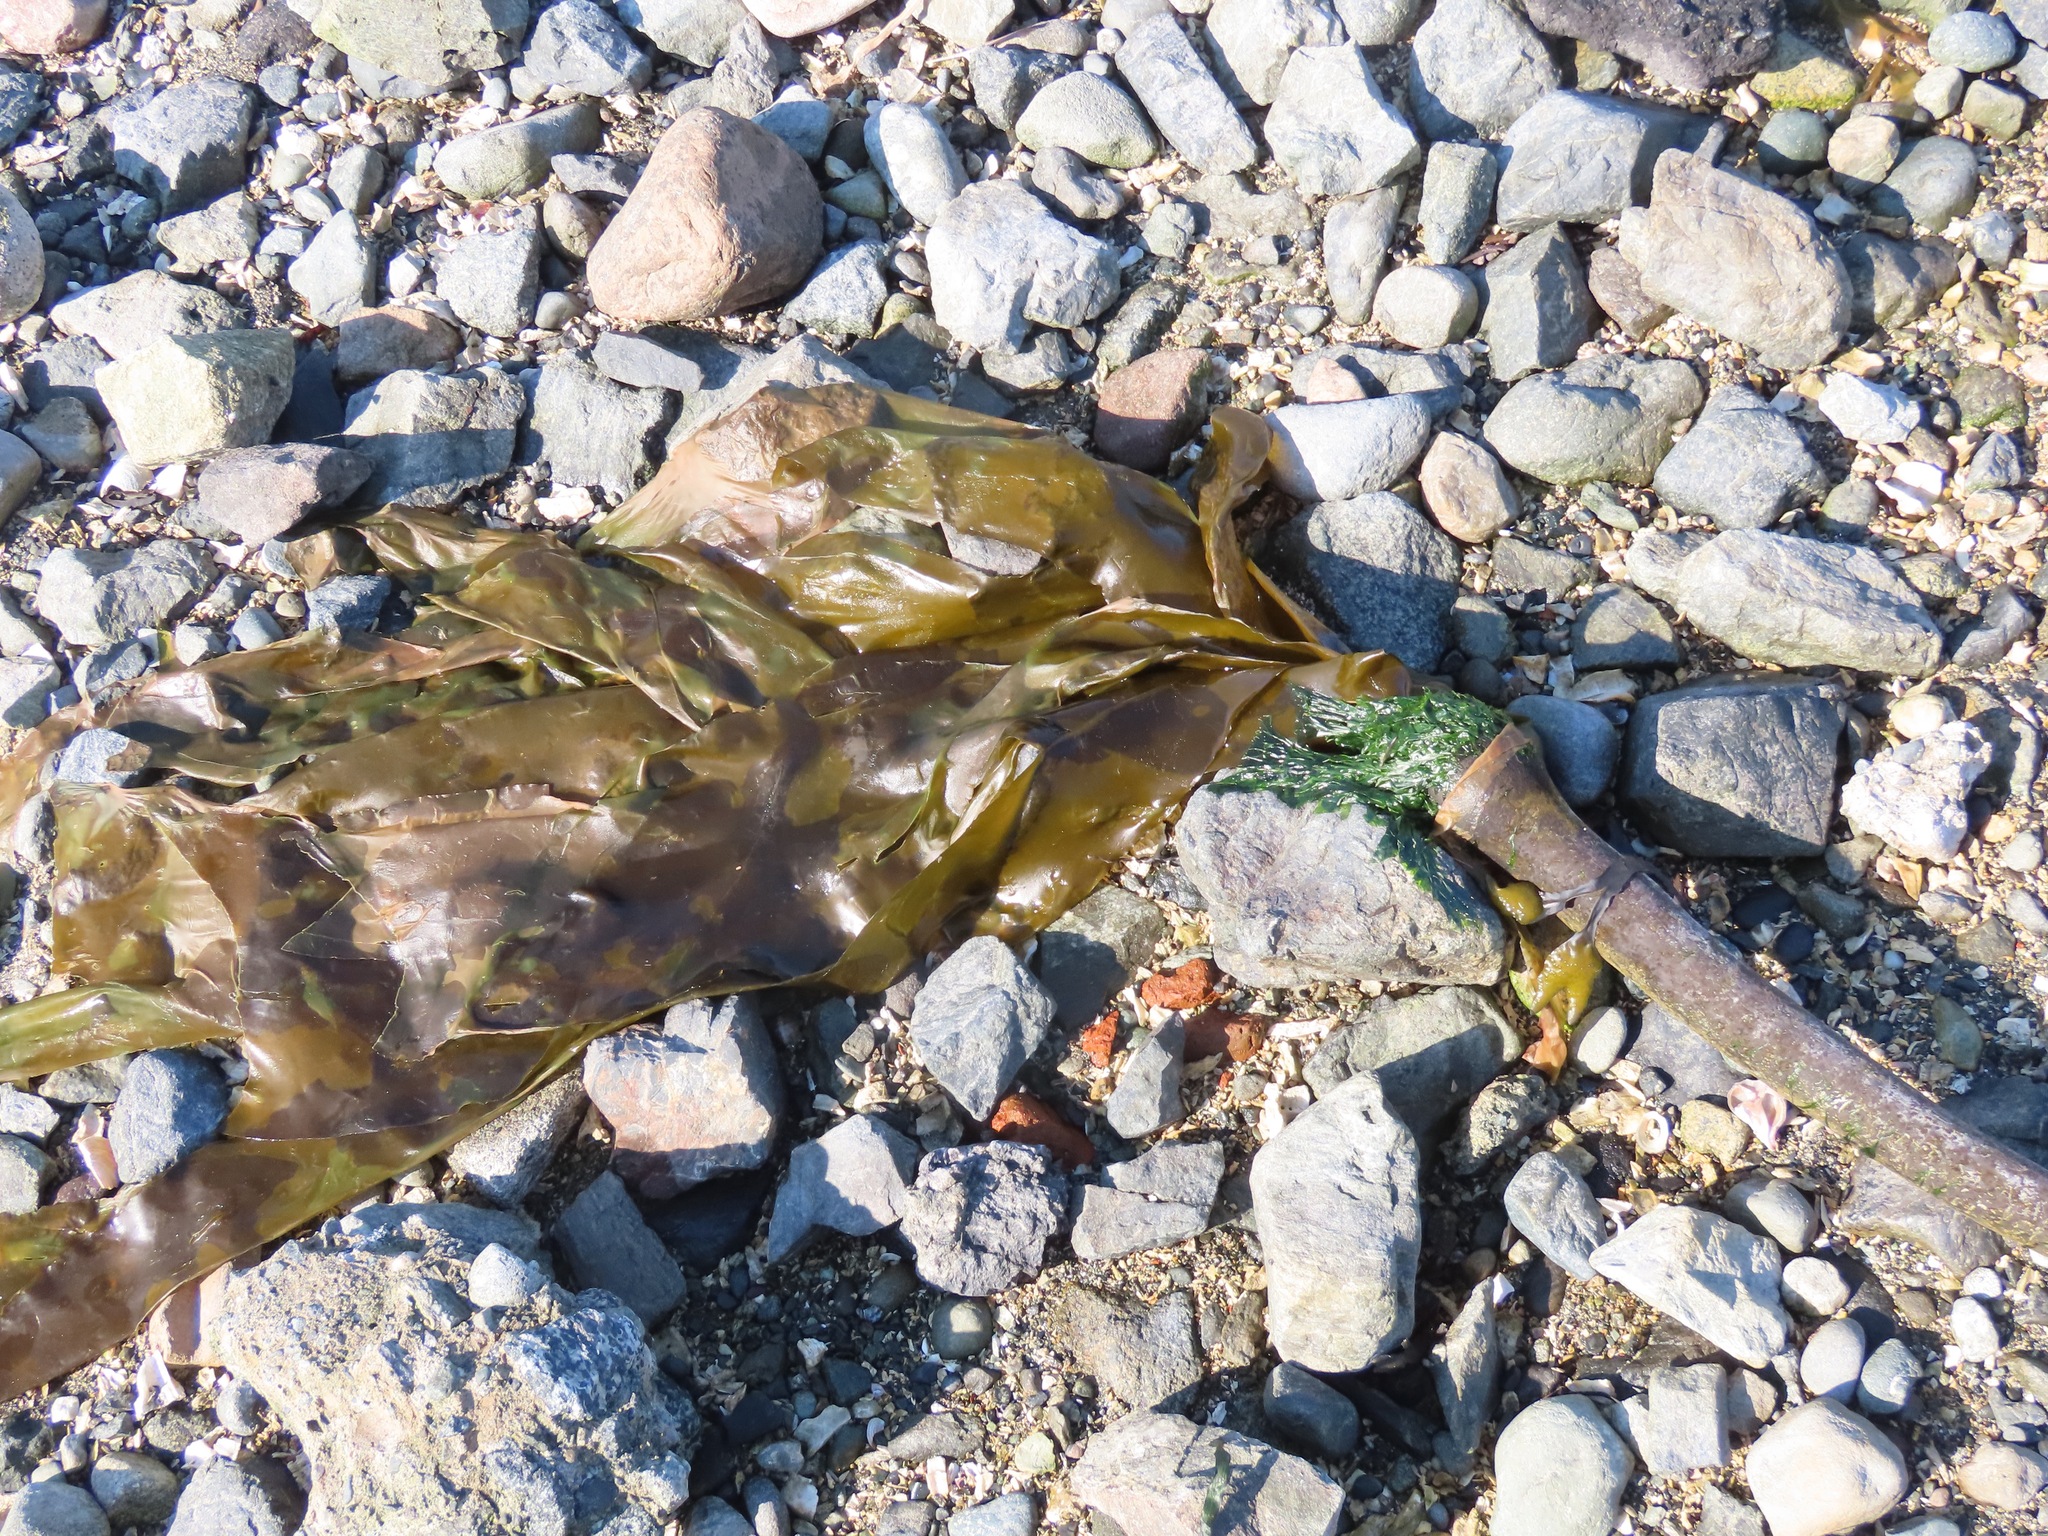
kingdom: Chromista
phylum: Ochrophyta
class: Phaeophyceae
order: Laminariales
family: Laminariaceae
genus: Nereocystis
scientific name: Nereocystis luetkeana
